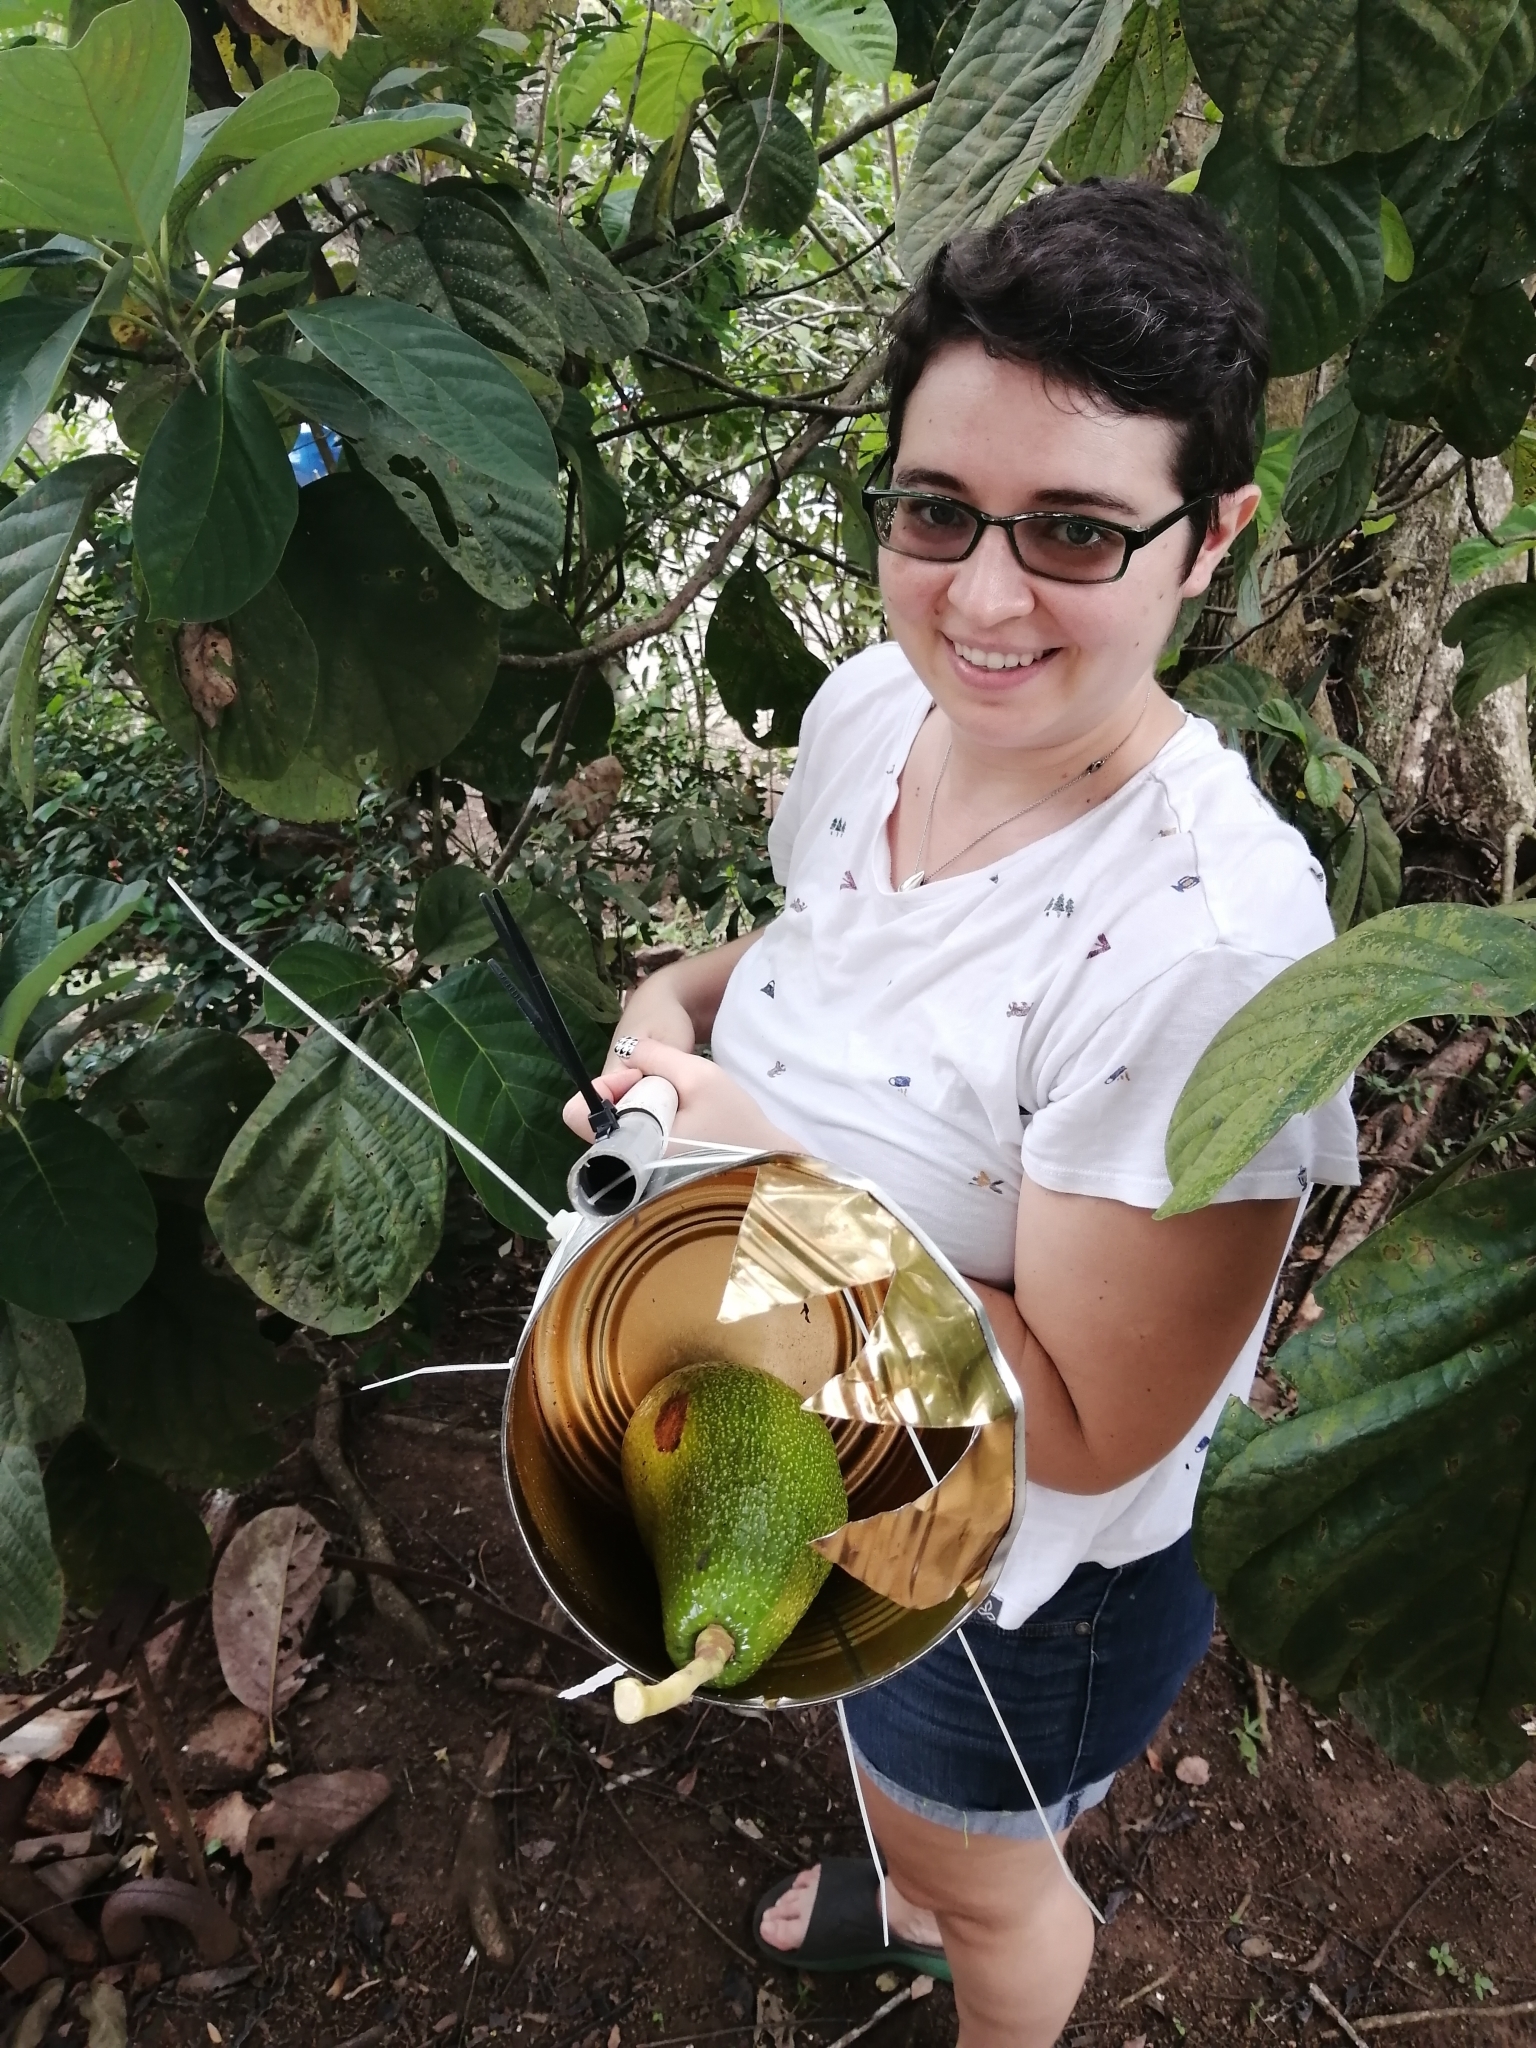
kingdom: Plantae
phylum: Tracheophyta
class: Magnoliopsida
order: Laurales
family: Lauraceae
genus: Persea
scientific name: Persea americana
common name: Avocado
